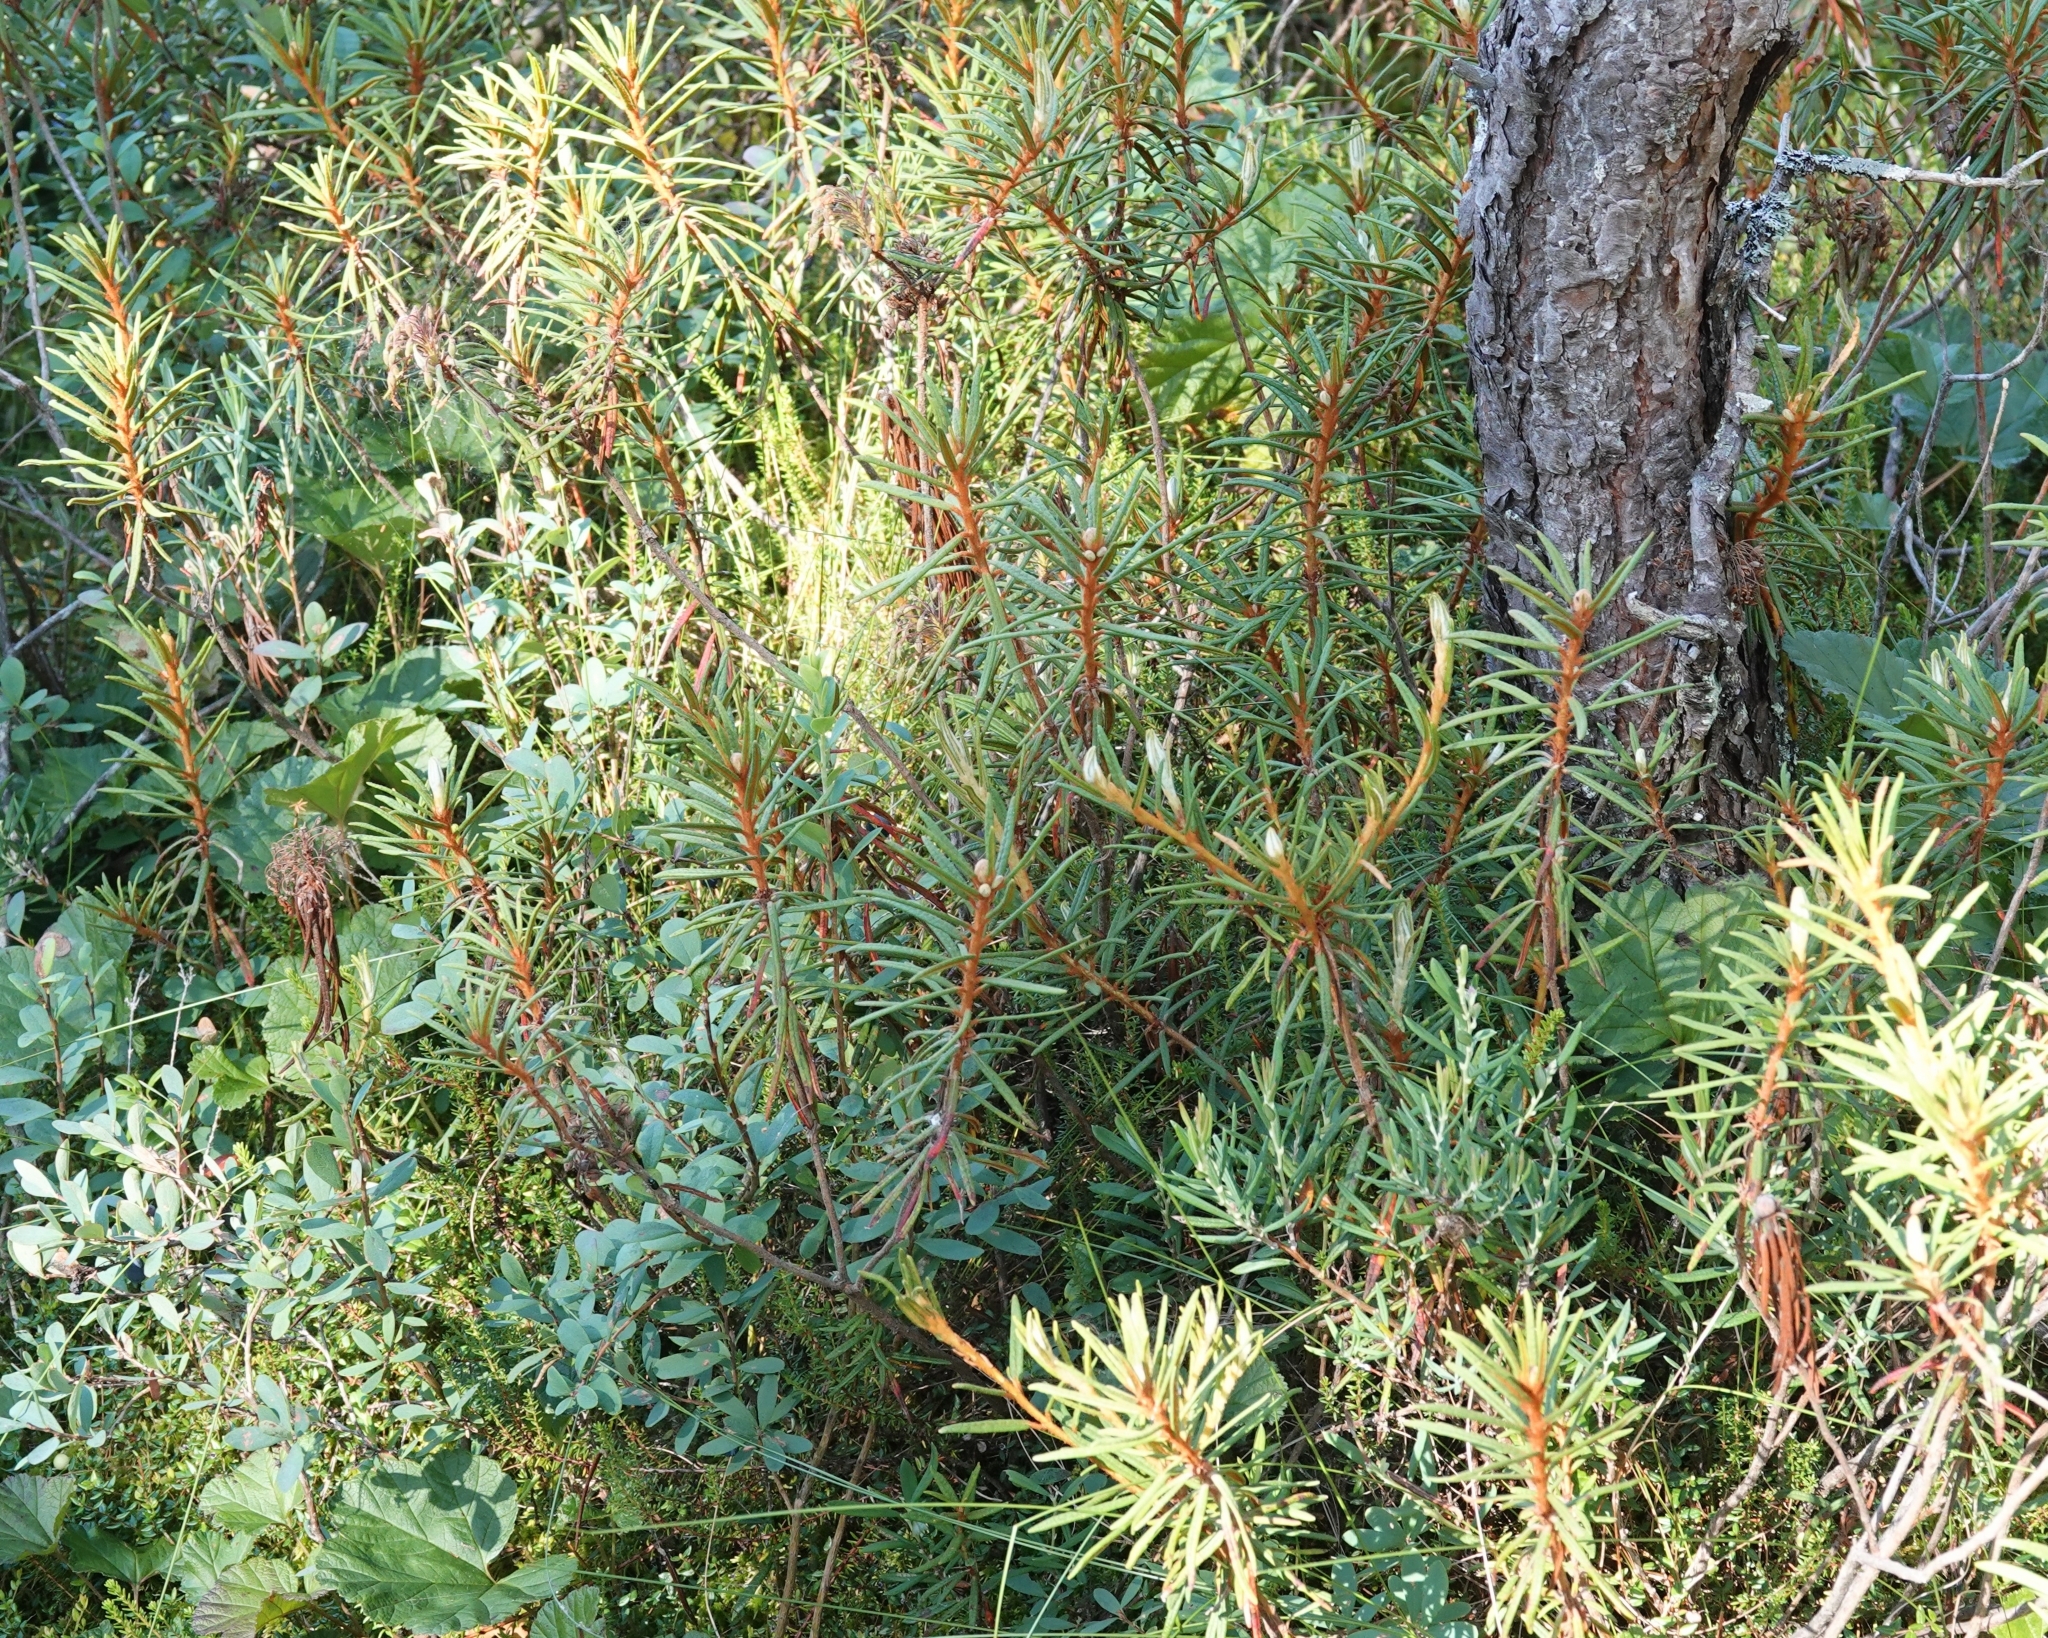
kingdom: Plantae
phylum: Tracheophyta
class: Magnoliopsida
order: Ericales
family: Ericaceae
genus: Rhododendron
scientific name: Rhododendron tomentosum
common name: Marsh labrador tea
